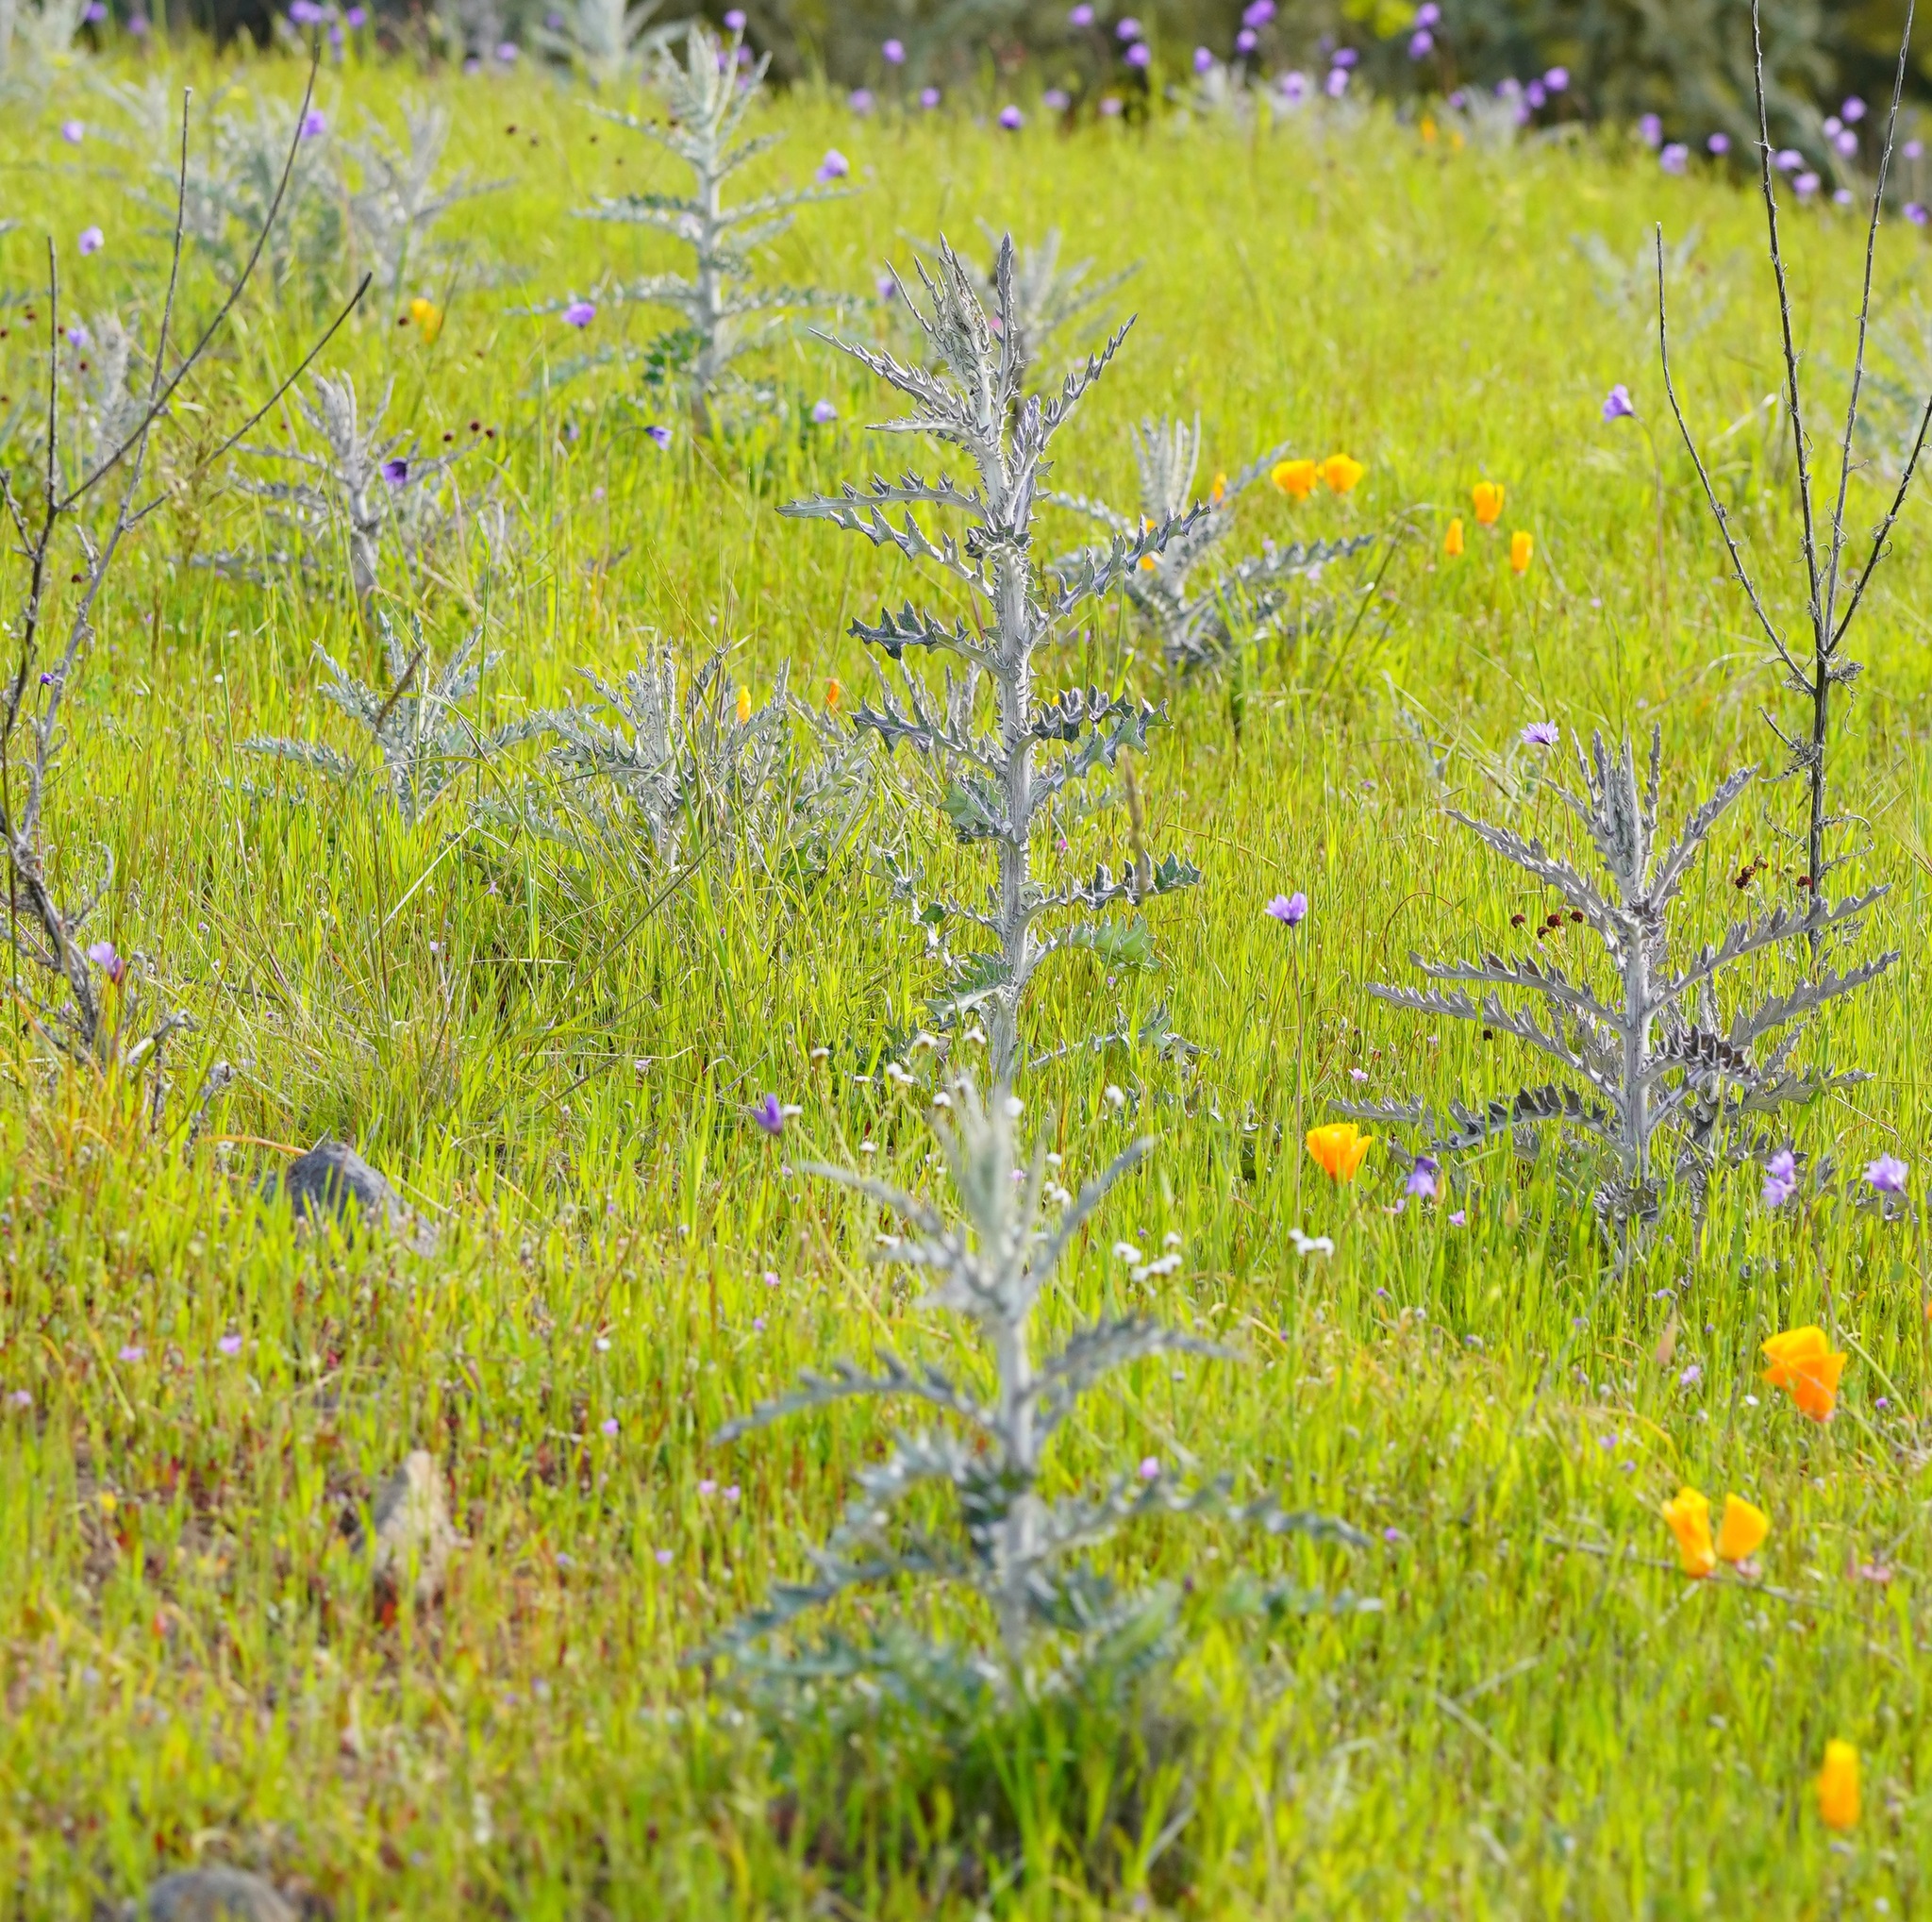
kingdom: Plantae
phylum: Tracheophyta
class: Magnoliopsida
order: Asterales
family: Asteraceae
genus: Cirsium
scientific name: Cirsium occidentale
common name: Western thistle
